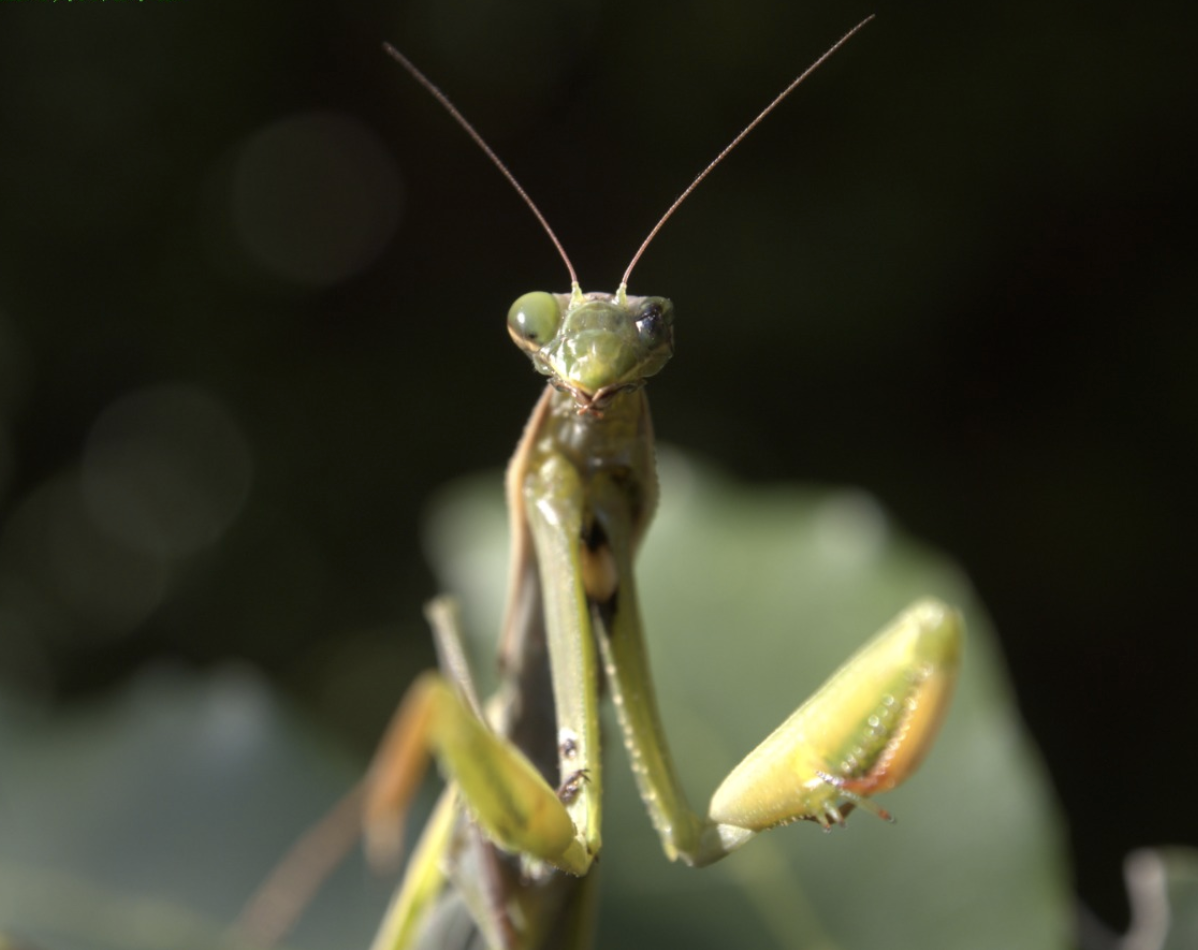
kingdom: Animalia
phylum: Arthropoda
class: Insecta
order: Mantodea
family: Mantidae
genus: Mantis
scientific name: Mantis religiosa
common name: Praying mantis
